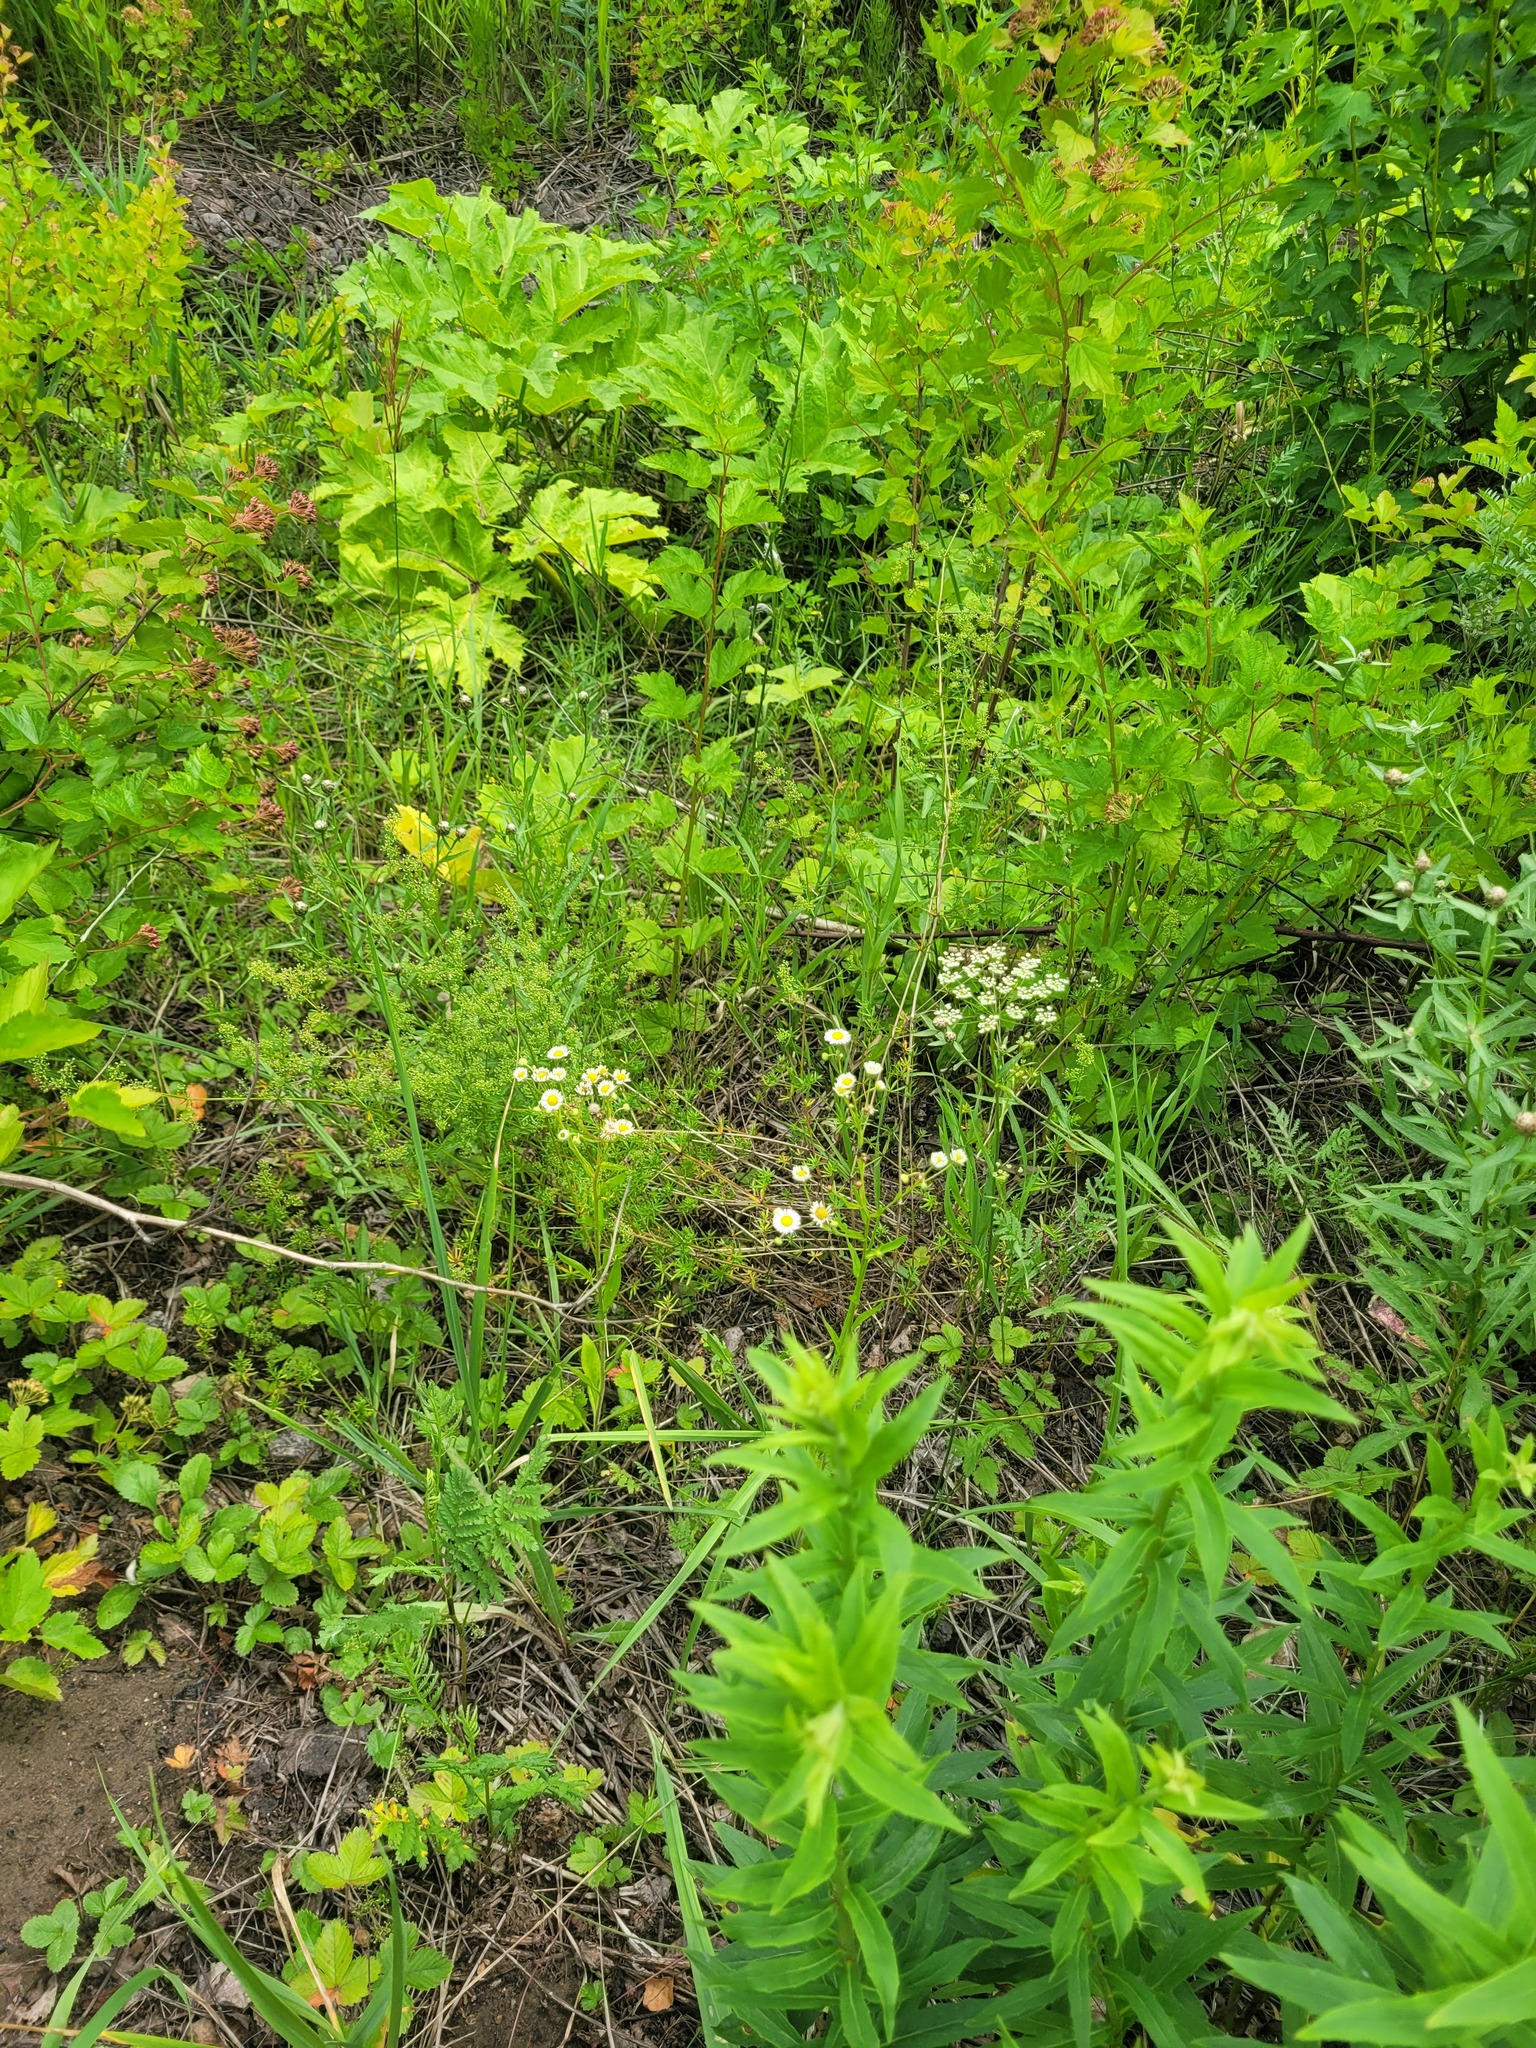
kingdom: Plantae
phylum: Tracheophyta
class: Magnoliopsida
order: Asterales
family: Asteraceae
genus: Erigeron
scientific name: Erigeron annuus
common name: Tall fleabane
